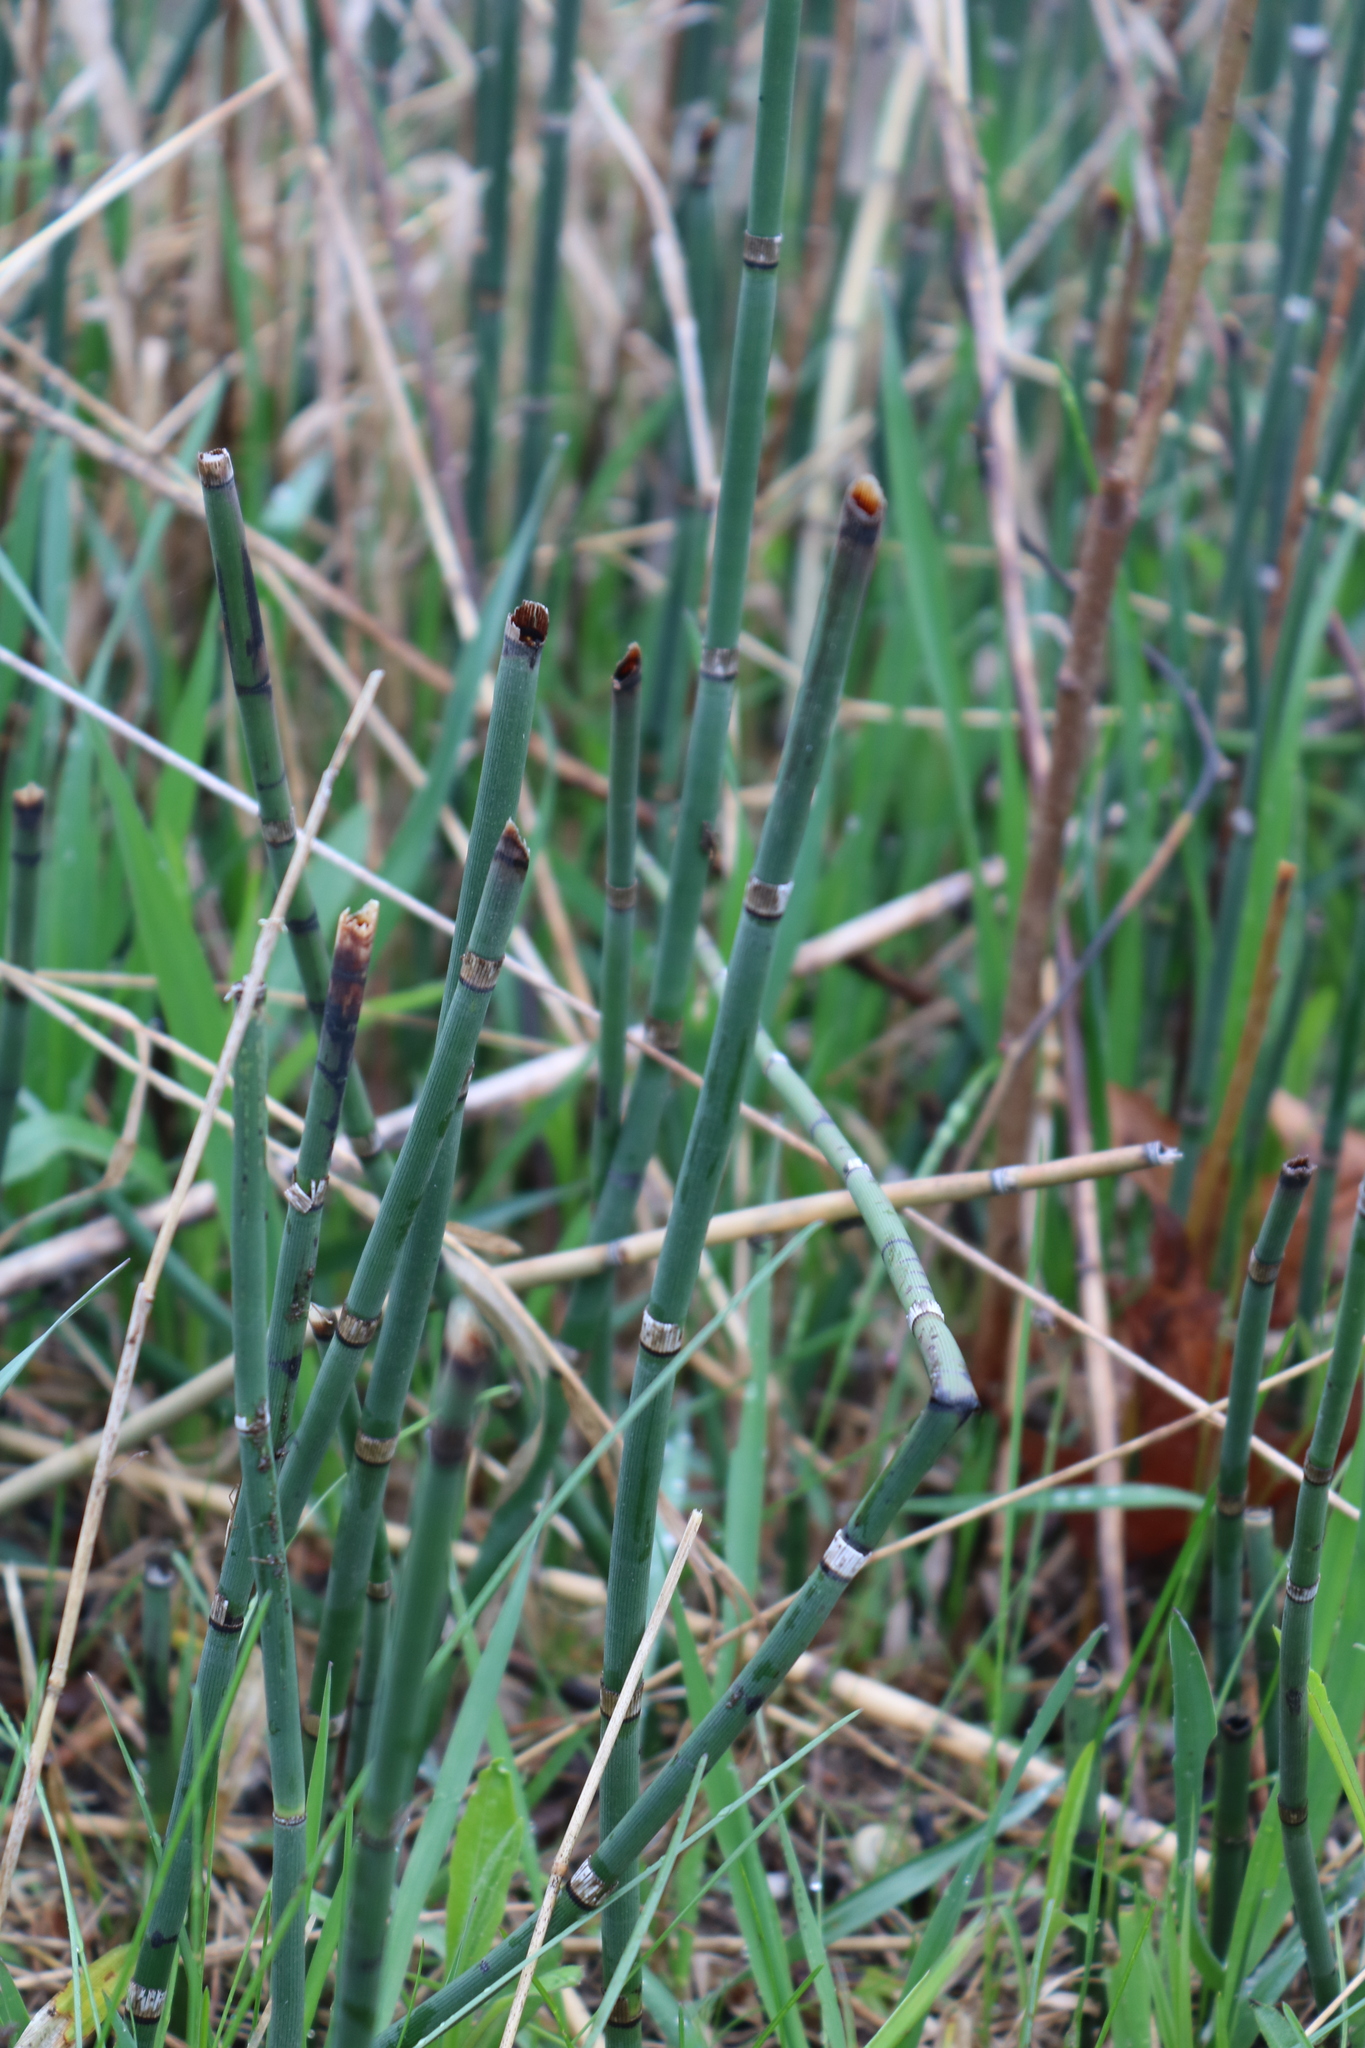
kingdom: Plantae
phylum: Tracheophyta
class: Polypodiopsida
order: Equisetales
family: Equisetaceae
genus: Equisetum
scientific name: Equisetum hyemale
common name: Rough horsetail
